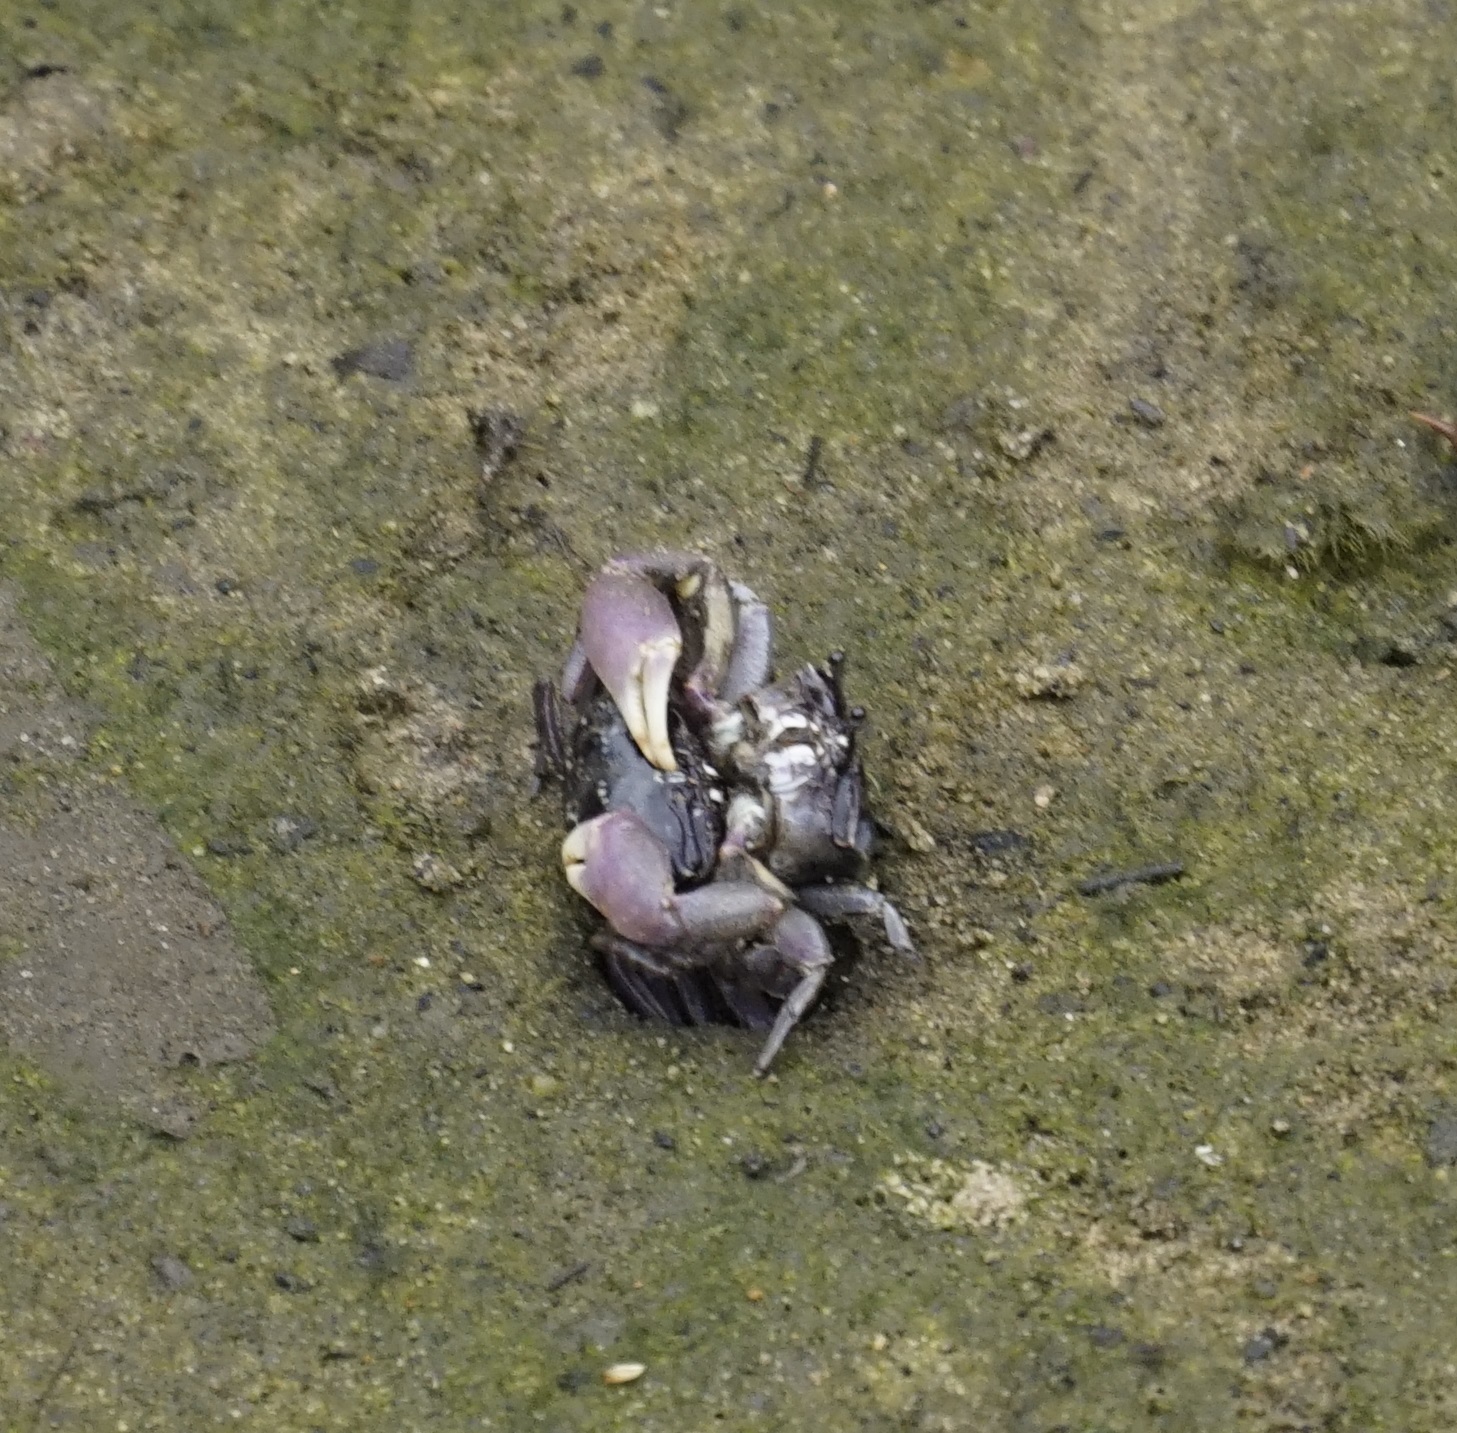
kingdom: Animalia
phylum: Arthropoda
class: Malacostraca
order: Decapoda
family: Heloeciidae
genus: Heloecius
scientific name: Heloecius cordiformis
